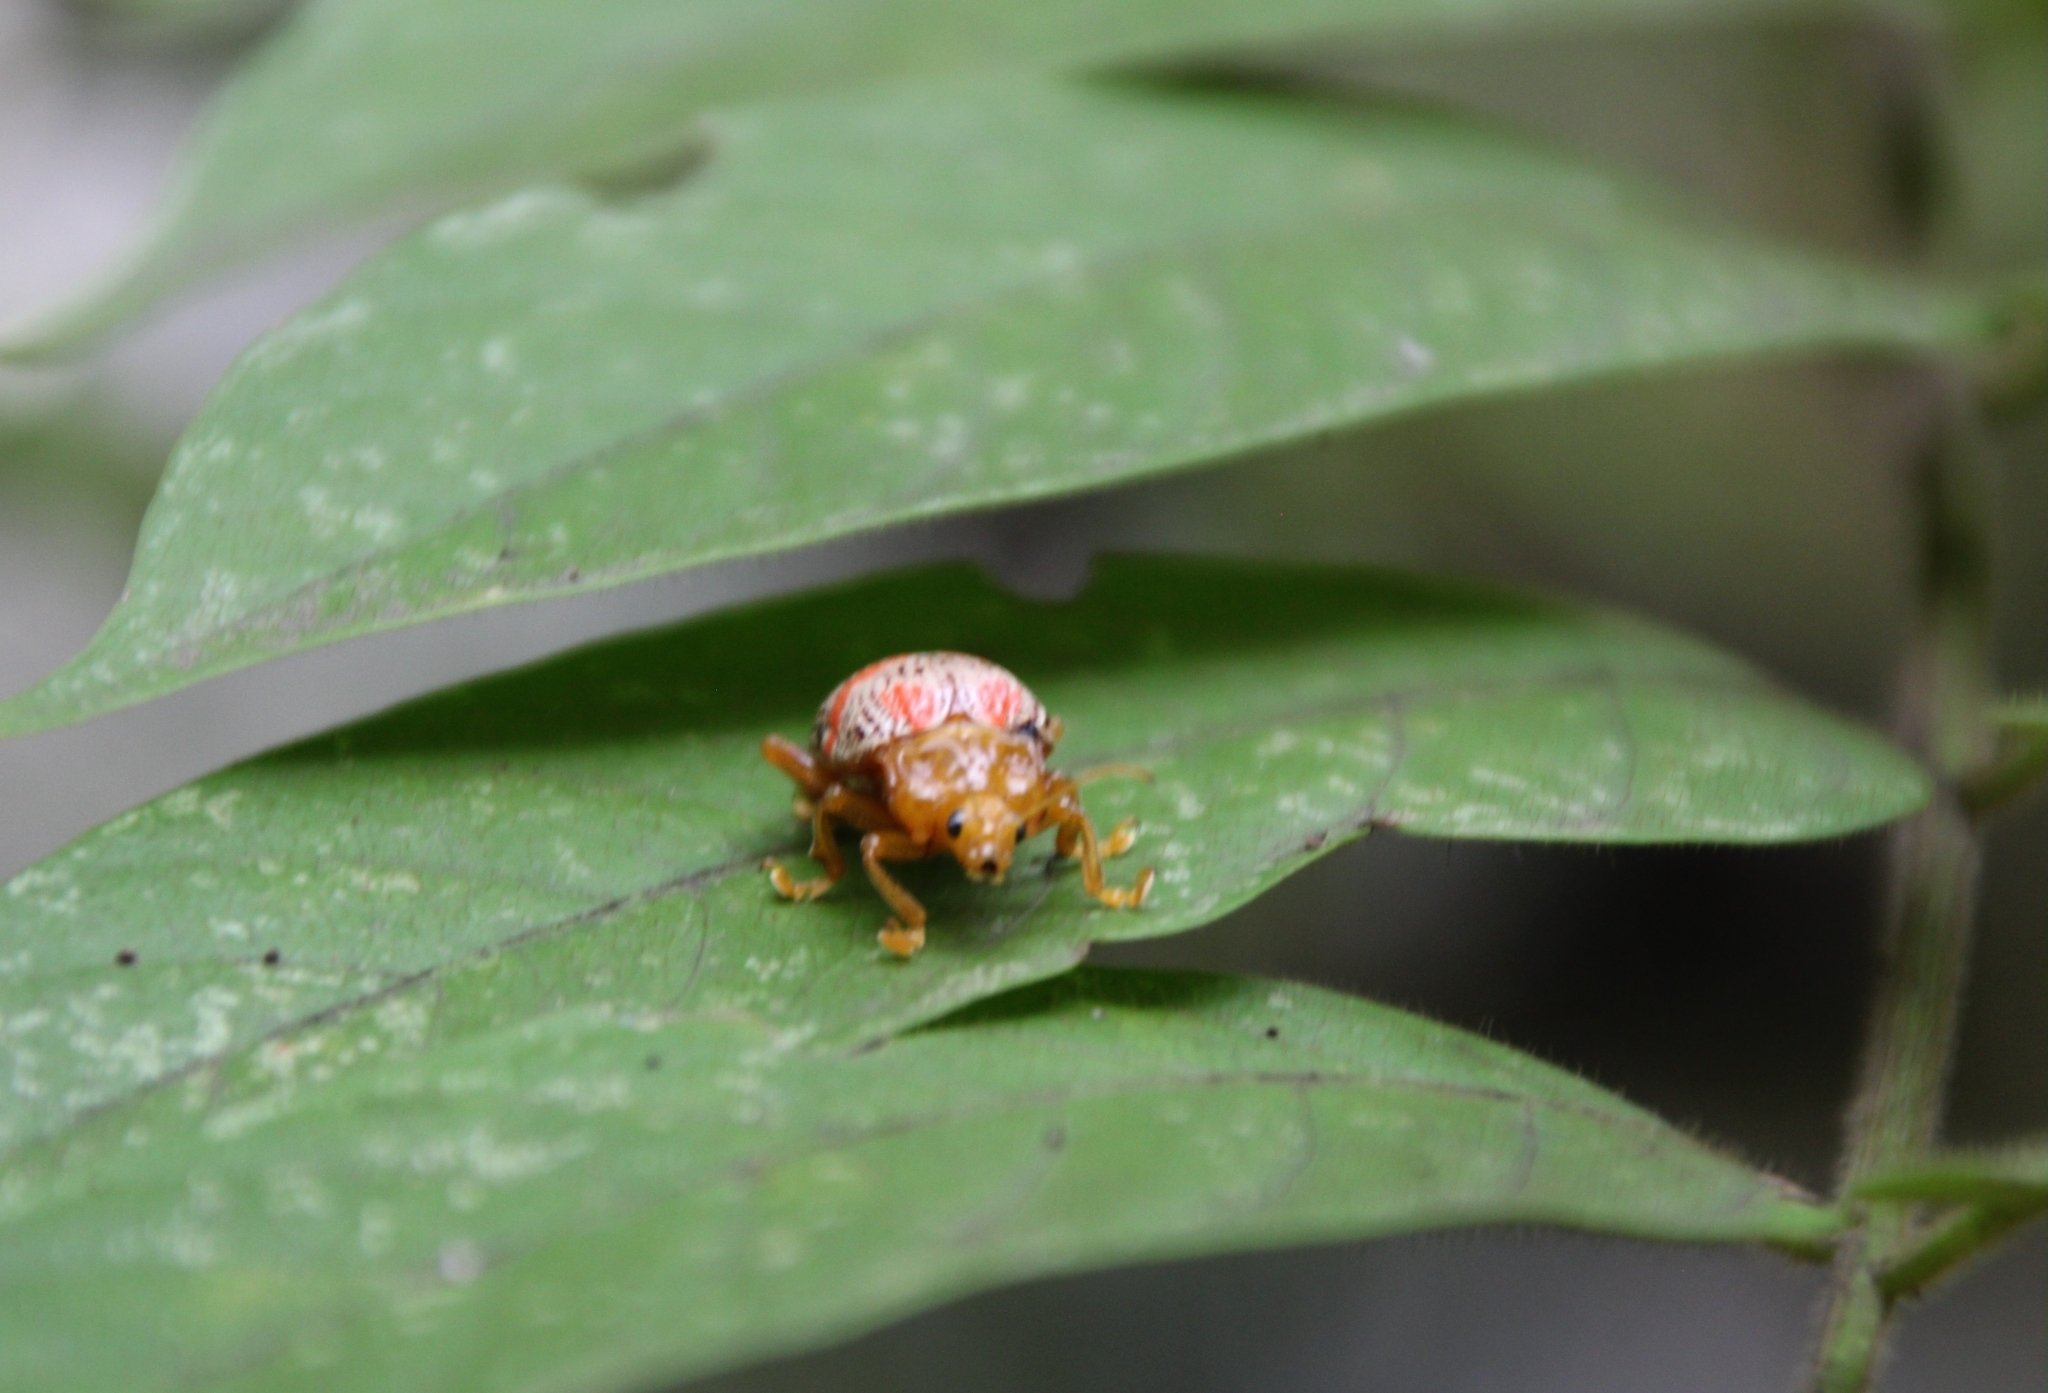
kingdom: Animalia
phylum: Arthropoda
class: Insecta
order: Coleoptera
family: Chrysomelidae
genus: Podontia
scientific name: Podontia
